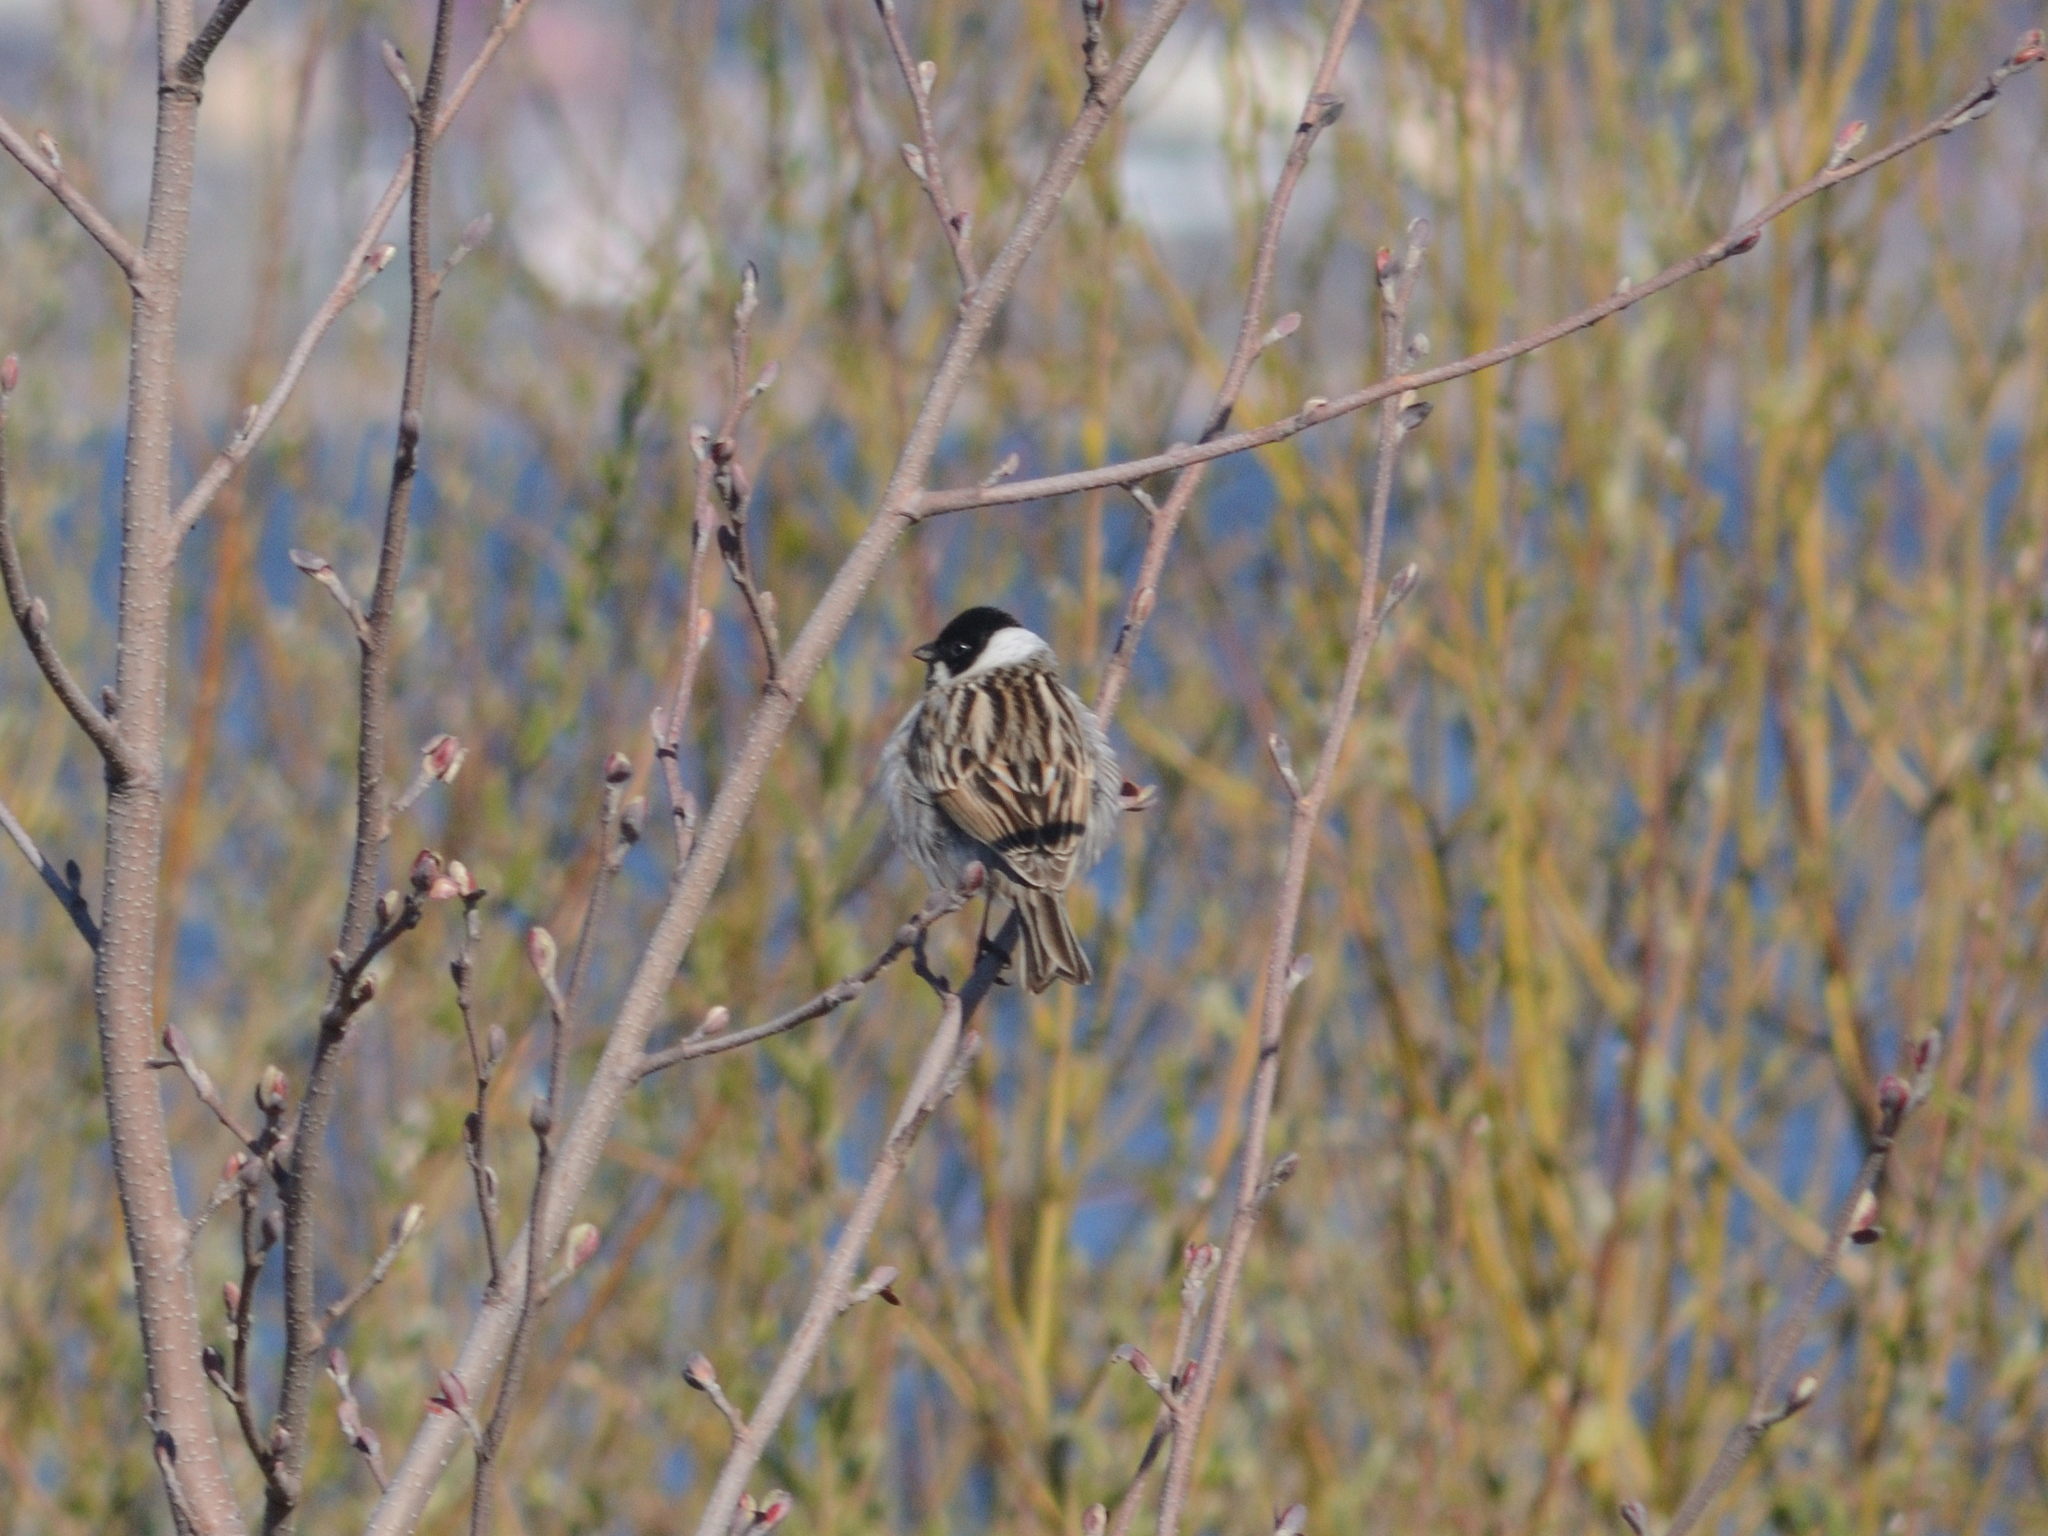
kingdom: Animalia
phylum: Chordata
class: Aves
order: Passeriformes
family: Emberizidae
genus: Emberiza
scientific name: Emberiza schoeniclus
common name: Reed bunting
